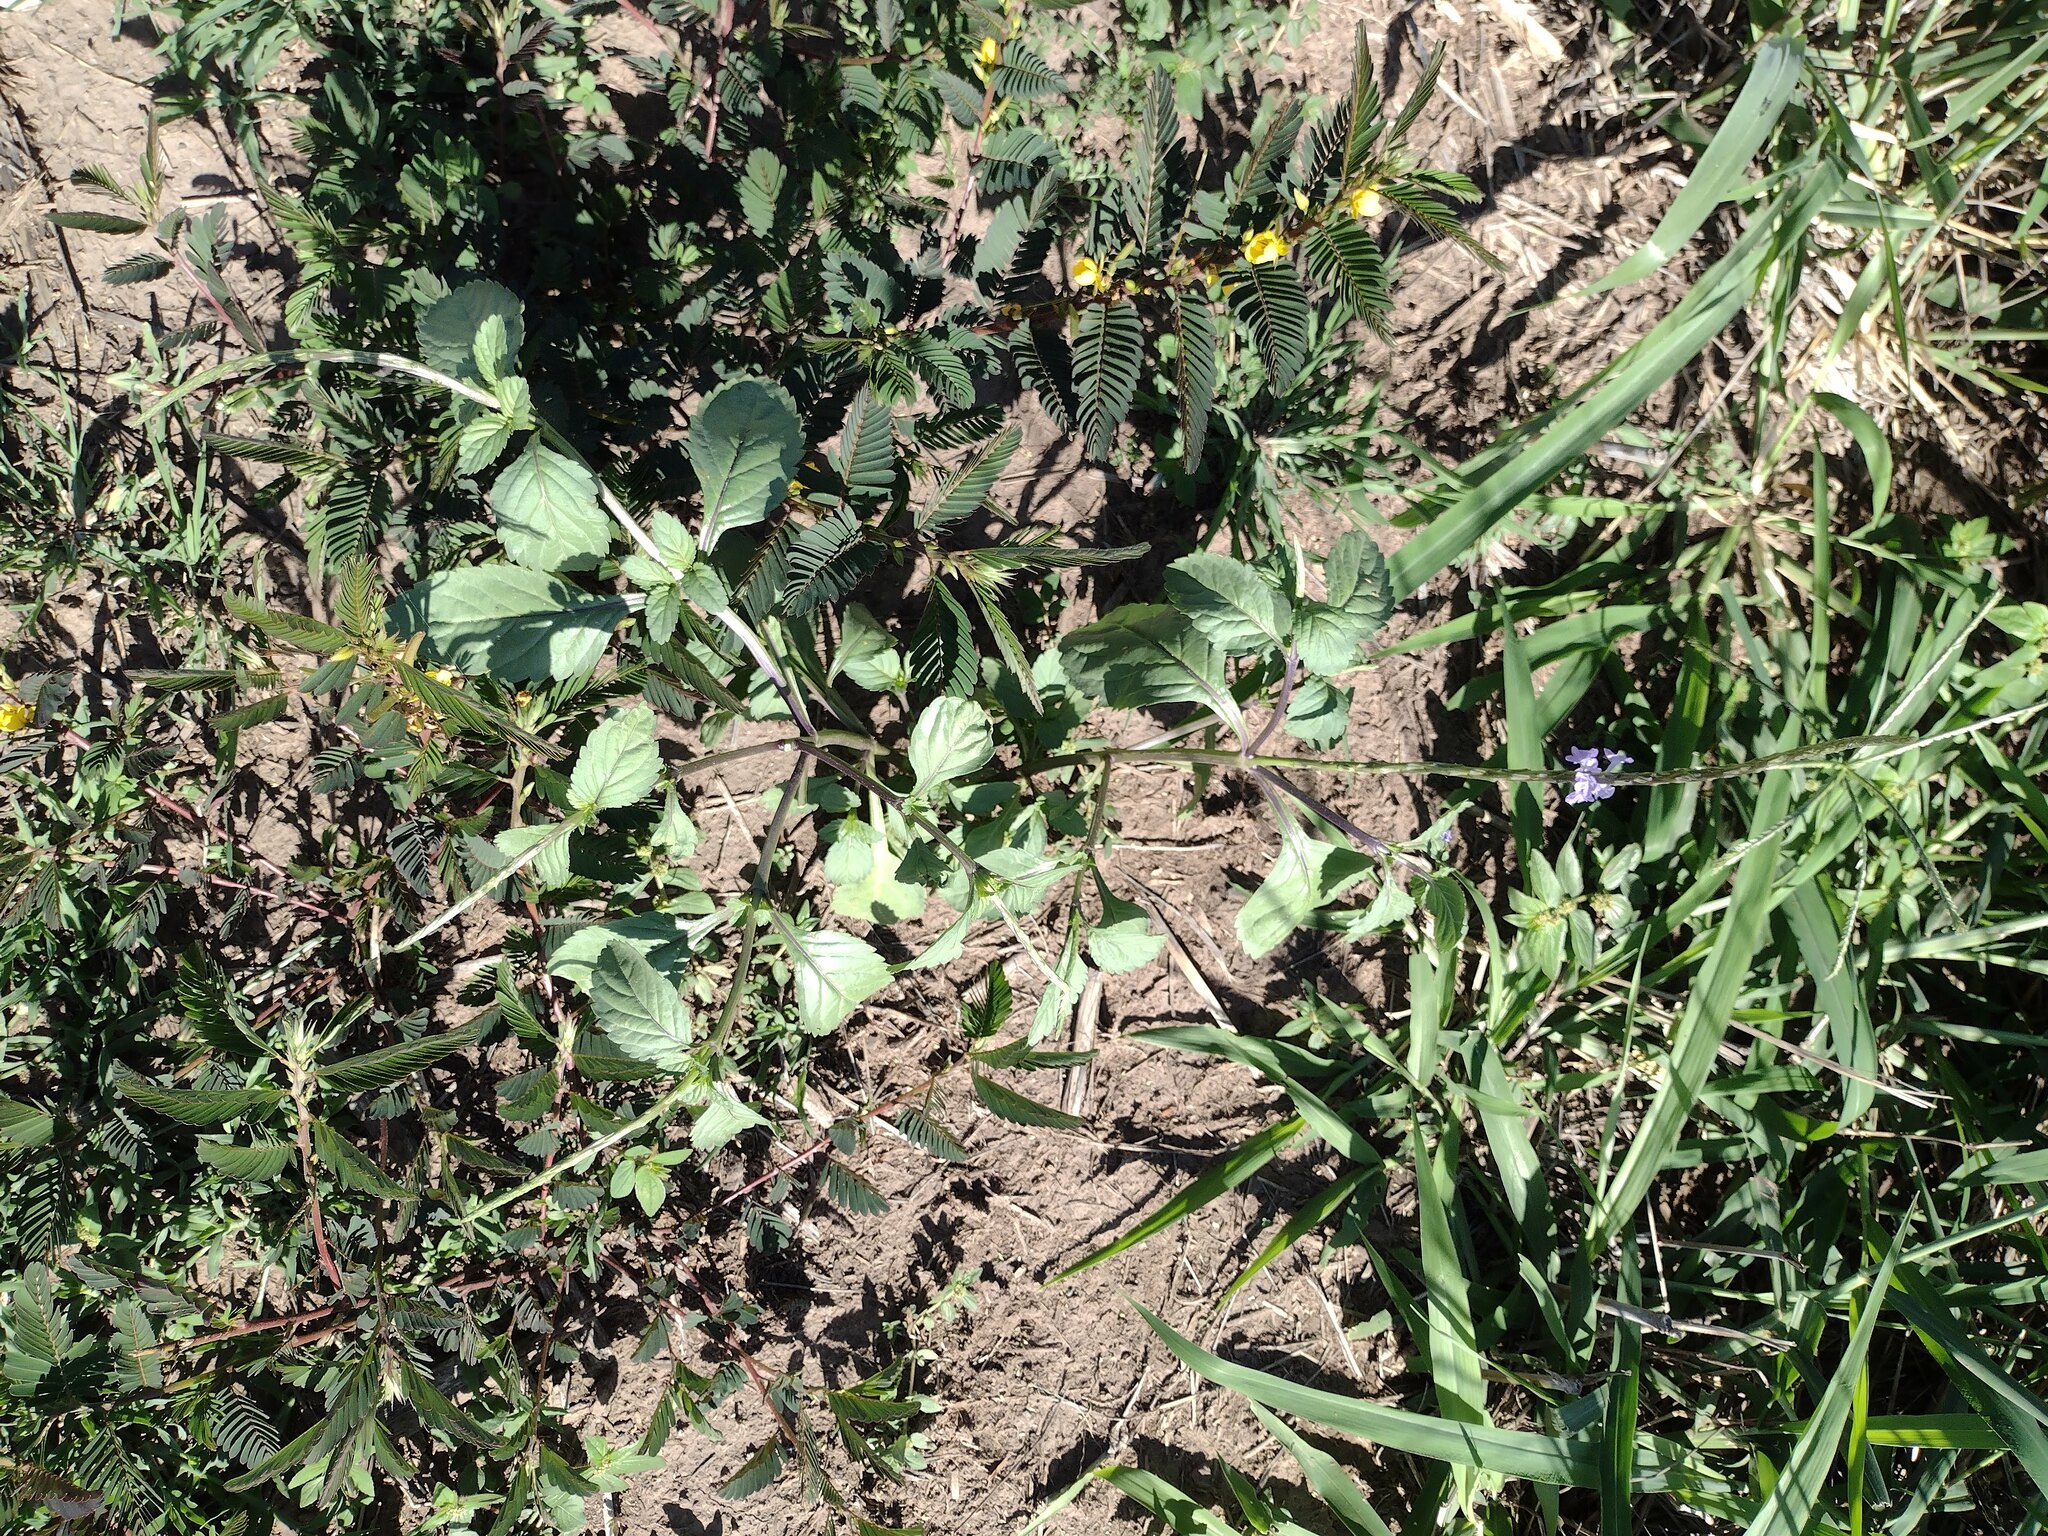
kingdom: Plantae
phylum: Tracheophyta
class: Magnoliopsida
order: Lamiales
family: Verbenaceae
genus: Stachytarpheta
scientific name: Stachytarpheta jamaicensis
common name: Light-blue snakeweed
